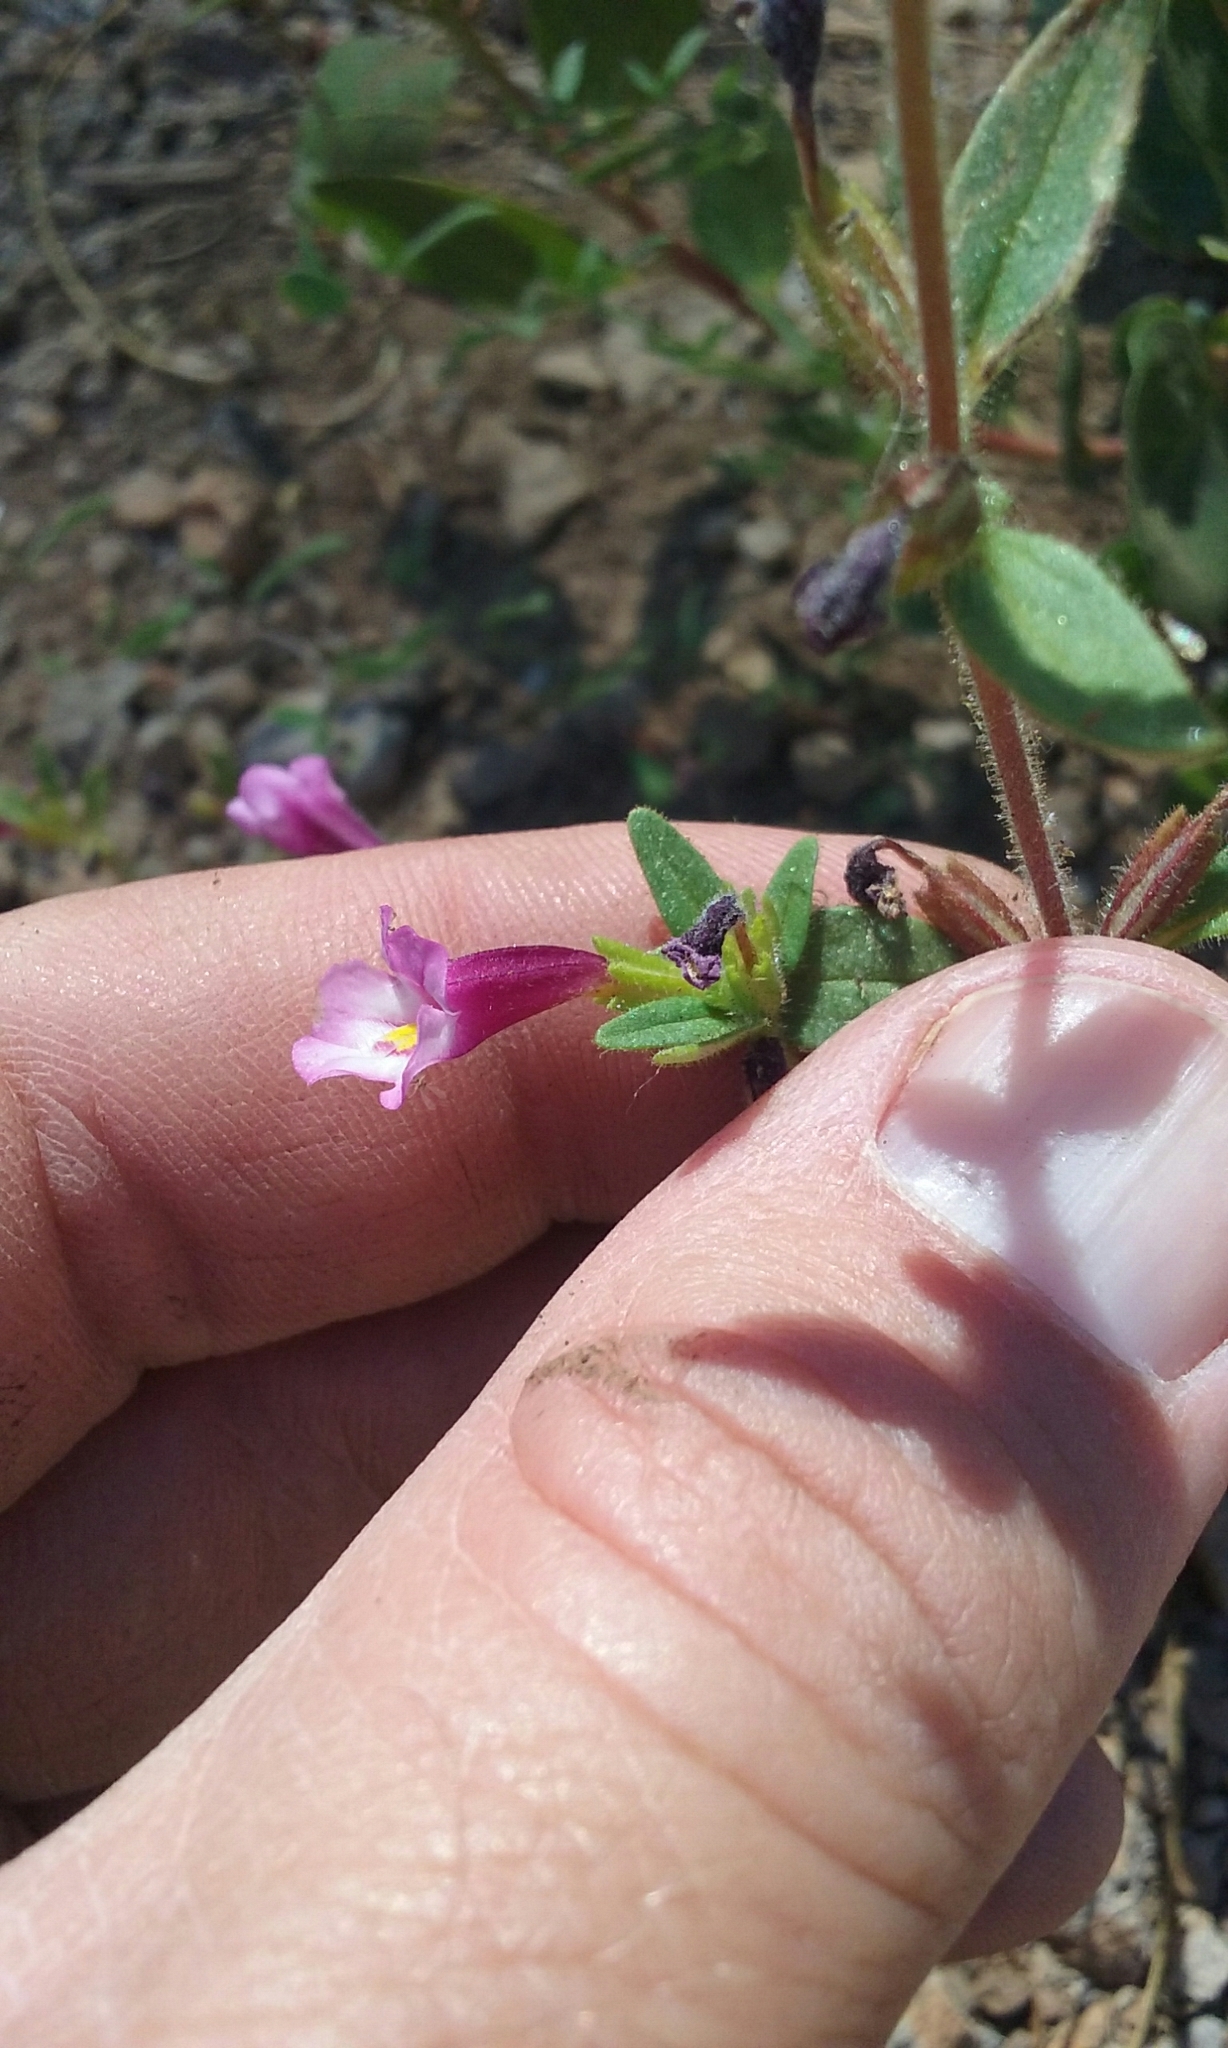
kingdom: Plantae
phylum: Tracheophyta
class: Magnoliopsida
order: Lamiales
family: Phrymaceae
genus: Diplacus
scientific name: Diplacus torreyi
